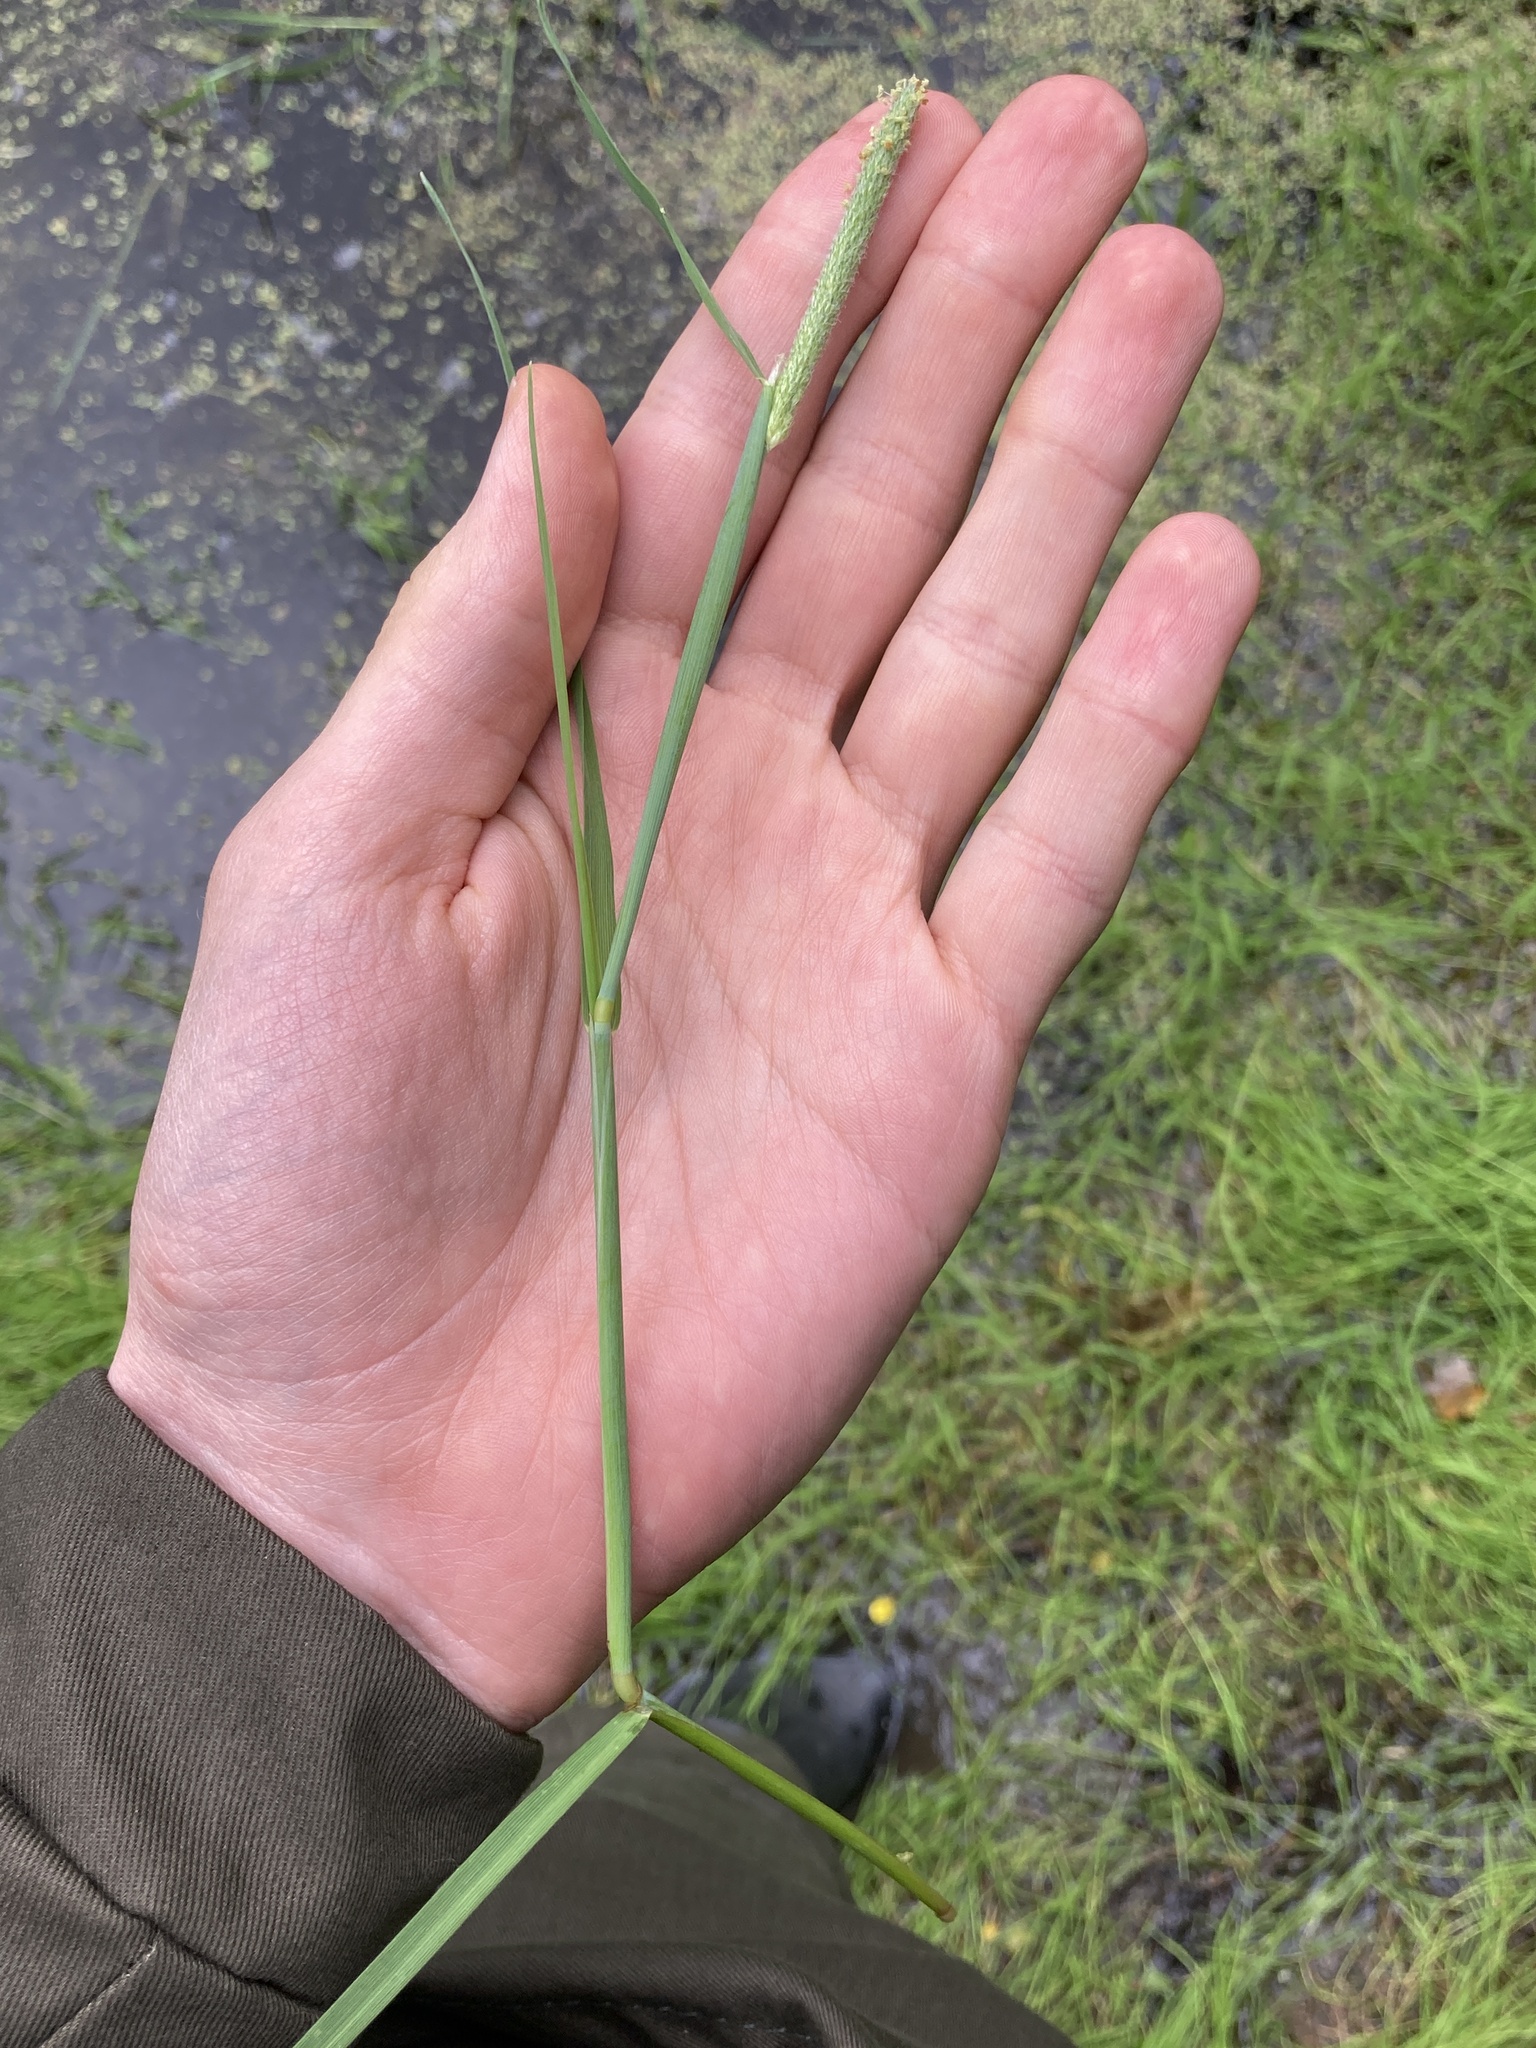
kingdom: Plantae
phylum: Tracheophyta
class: Liliopsida
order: Poales
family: Poaceae
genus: Alopecurus
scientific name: Alopecurus aequalis
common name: Orange foxtail
